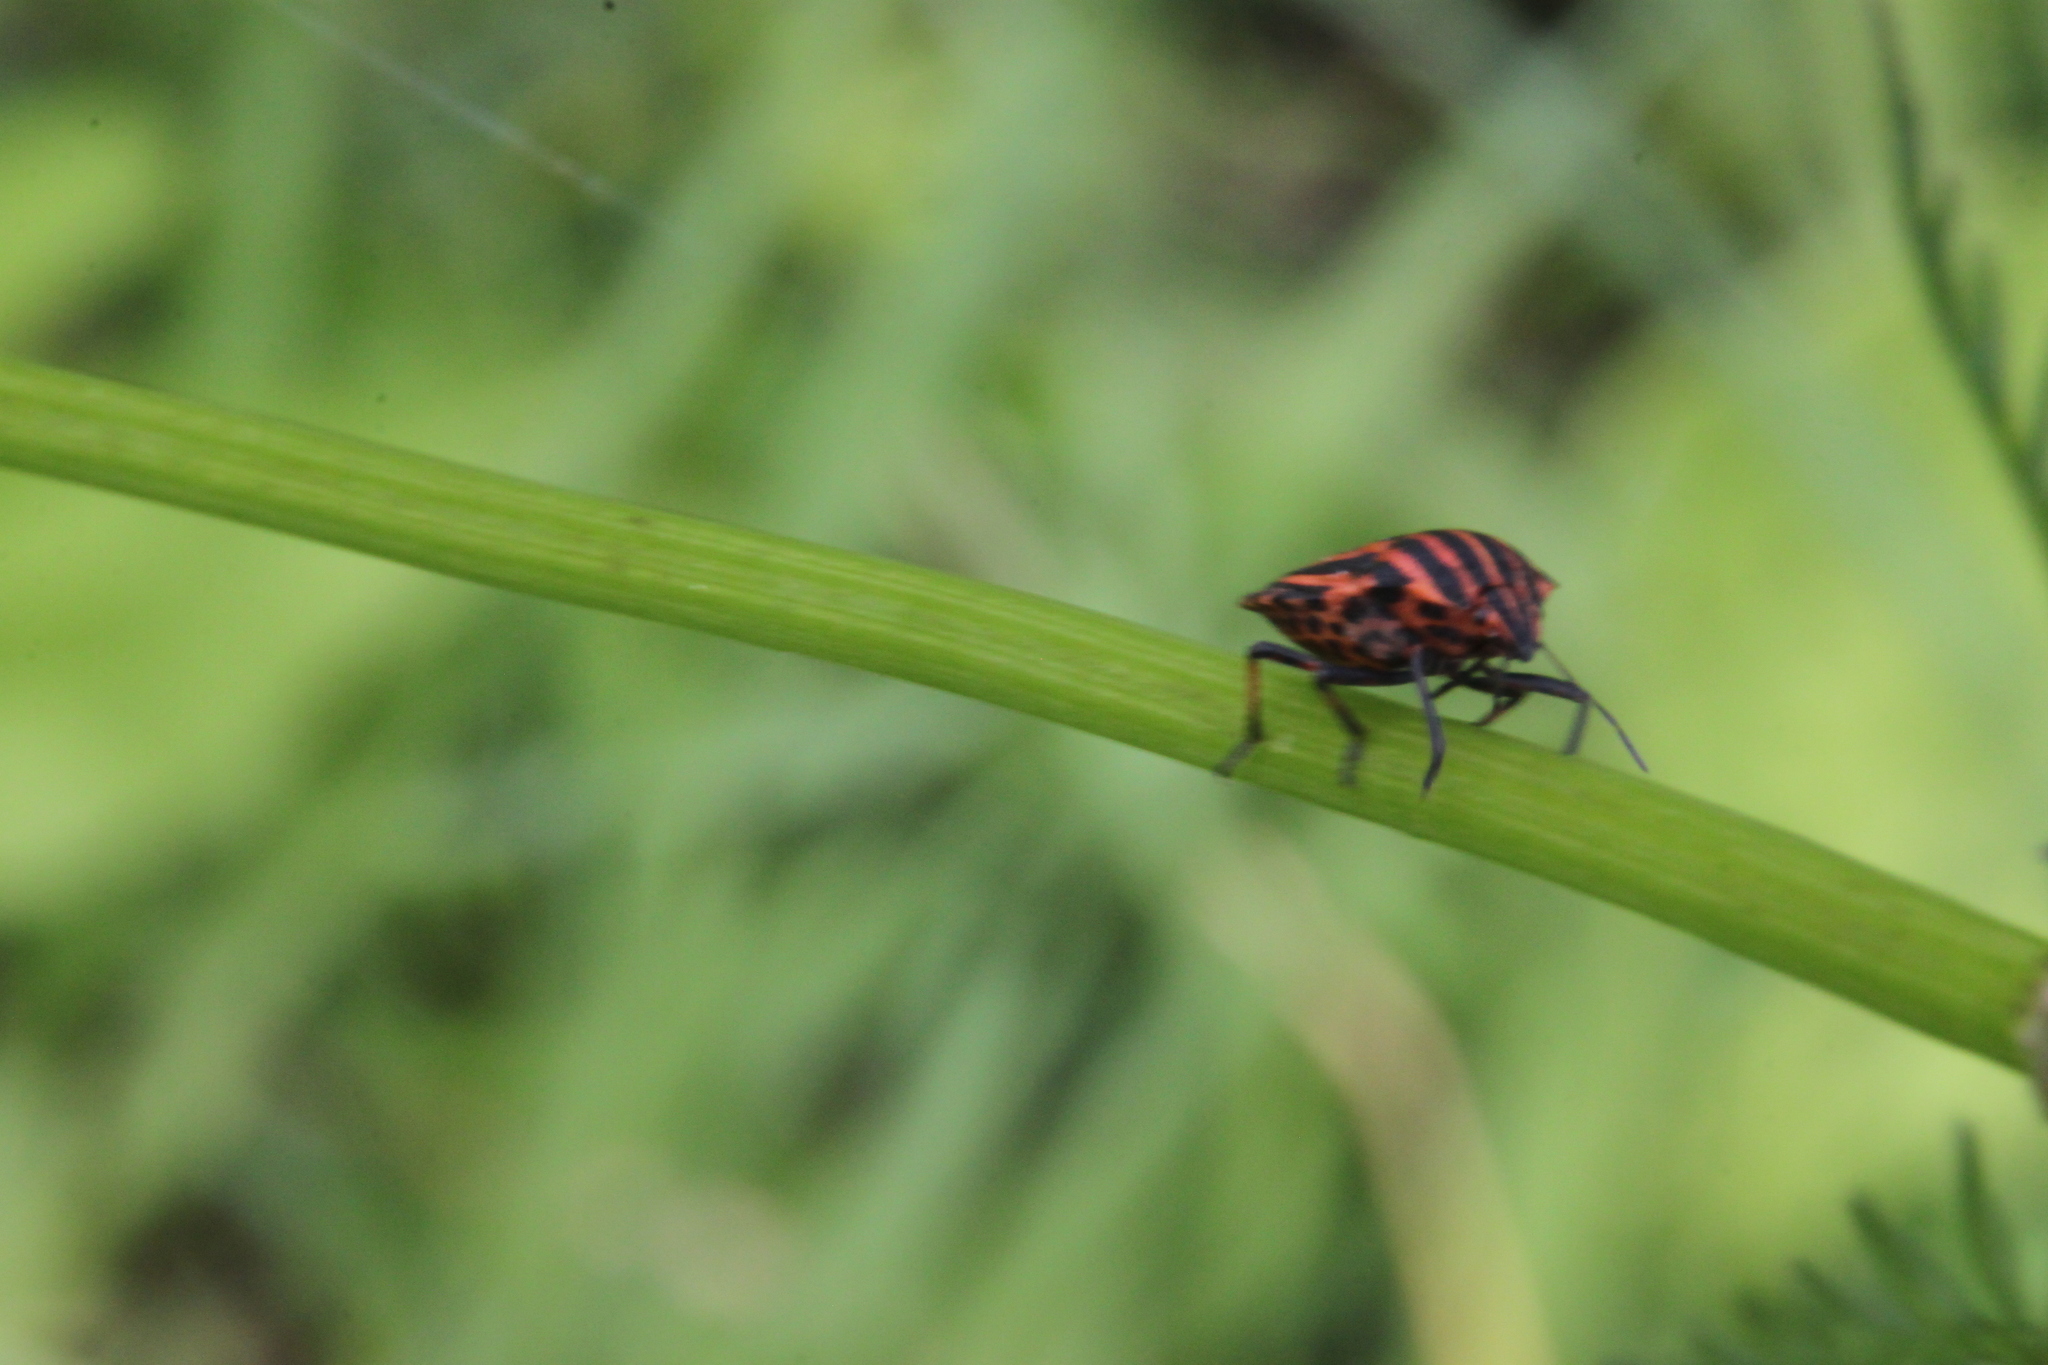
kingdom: Animalia
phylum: Arthropoda
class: Insecta
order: Hemiptera
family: Pentatomidae
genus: Graphosoma
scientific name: Graphosoma italicum
